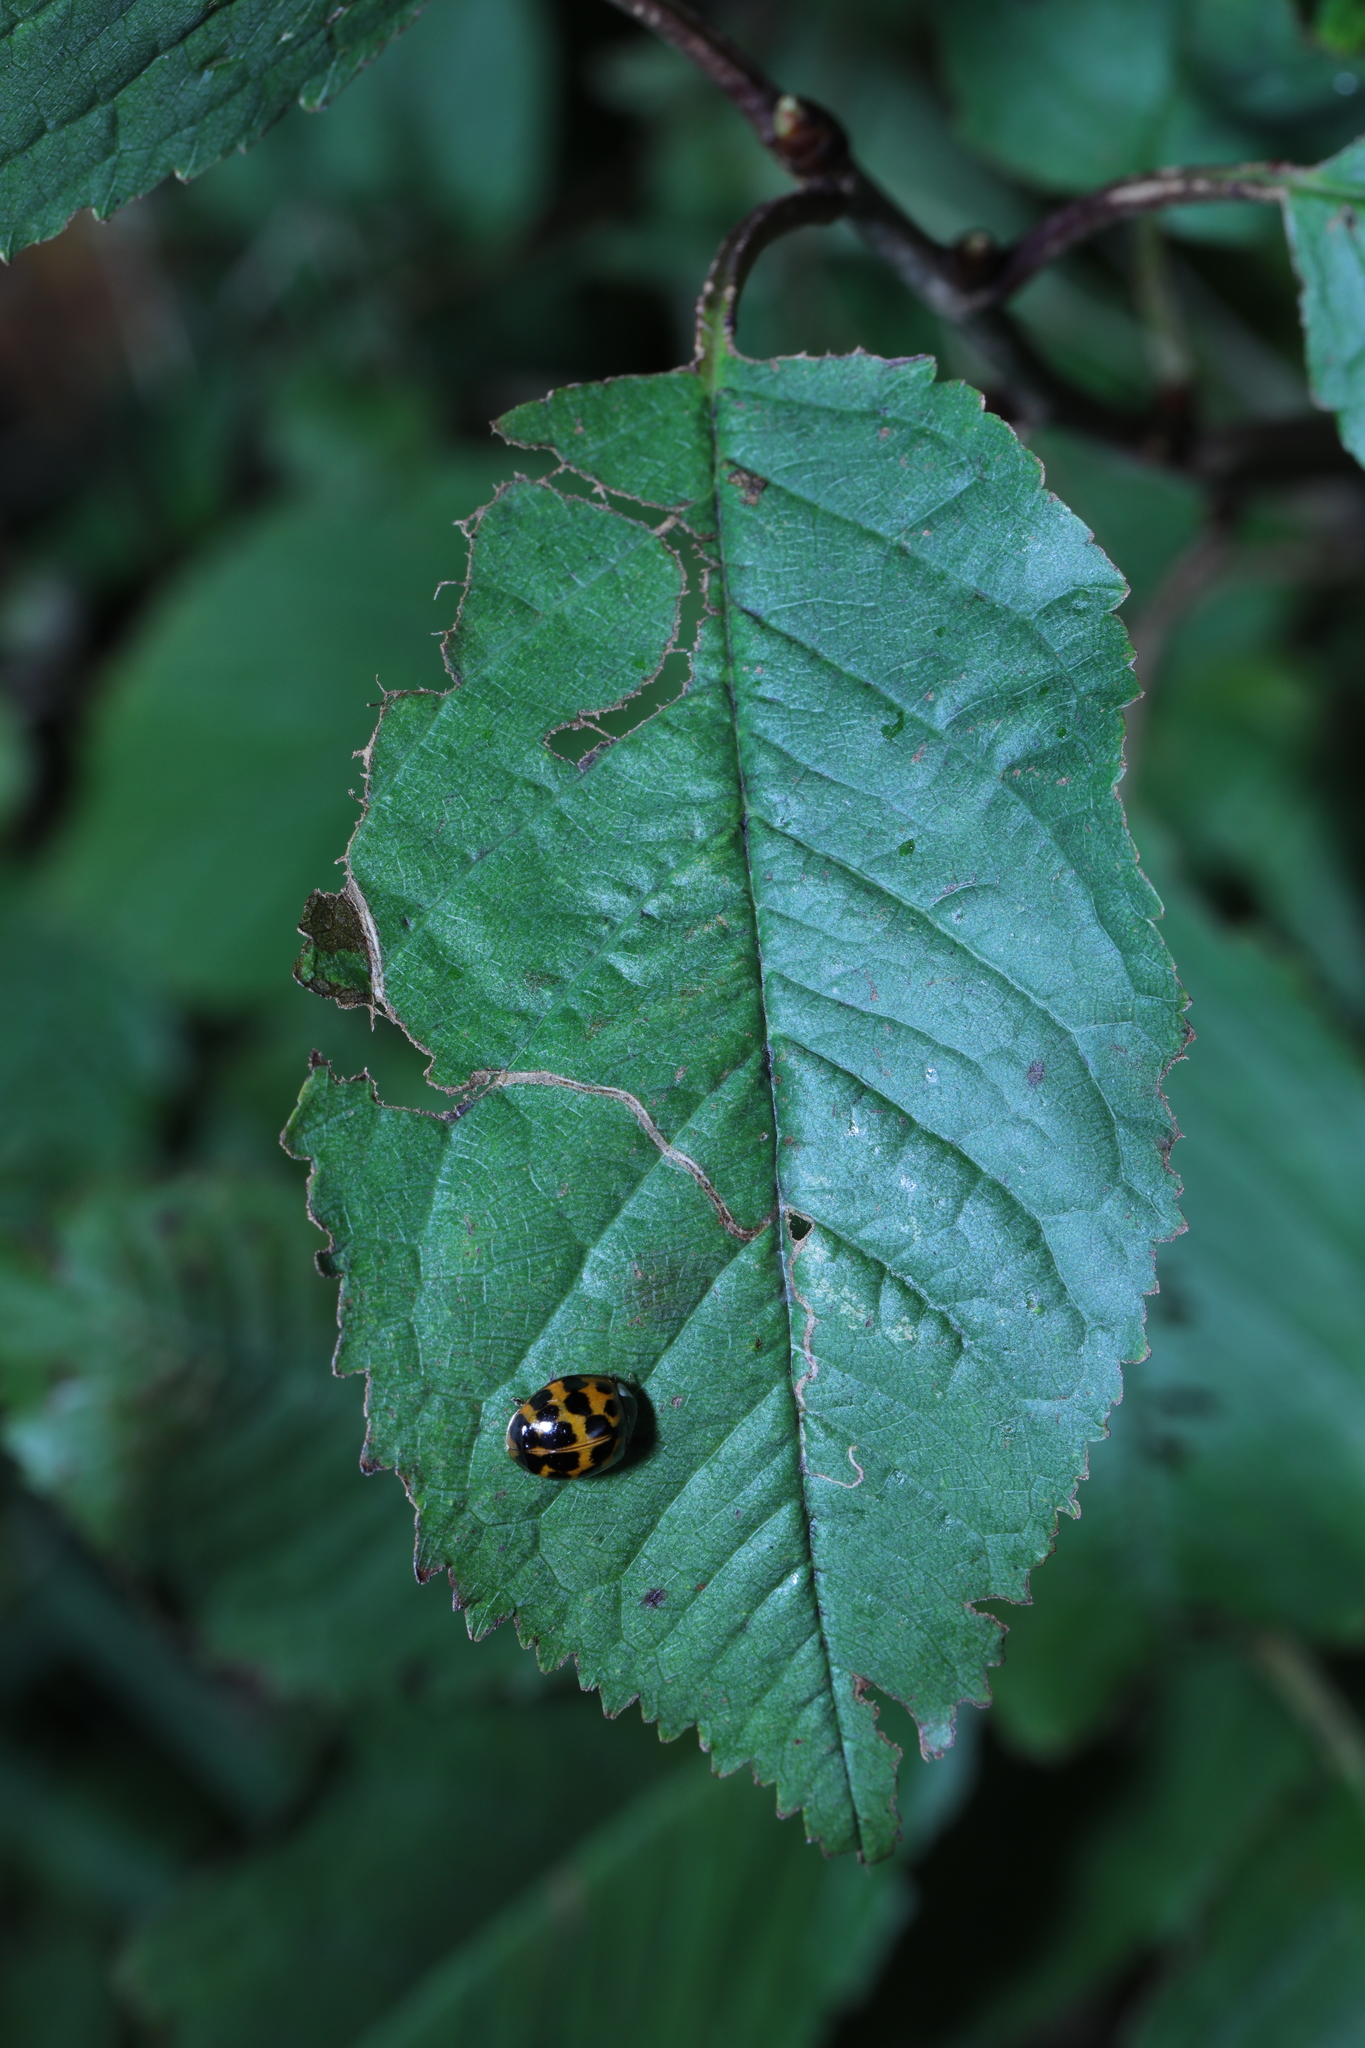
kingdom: Animalia
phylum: Arthropoda
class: Insecta
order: Lepidoptera
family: Lyonetiidae
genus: Lyonetia
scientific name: Lyonetia clerkella
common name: Apple leaf miner
